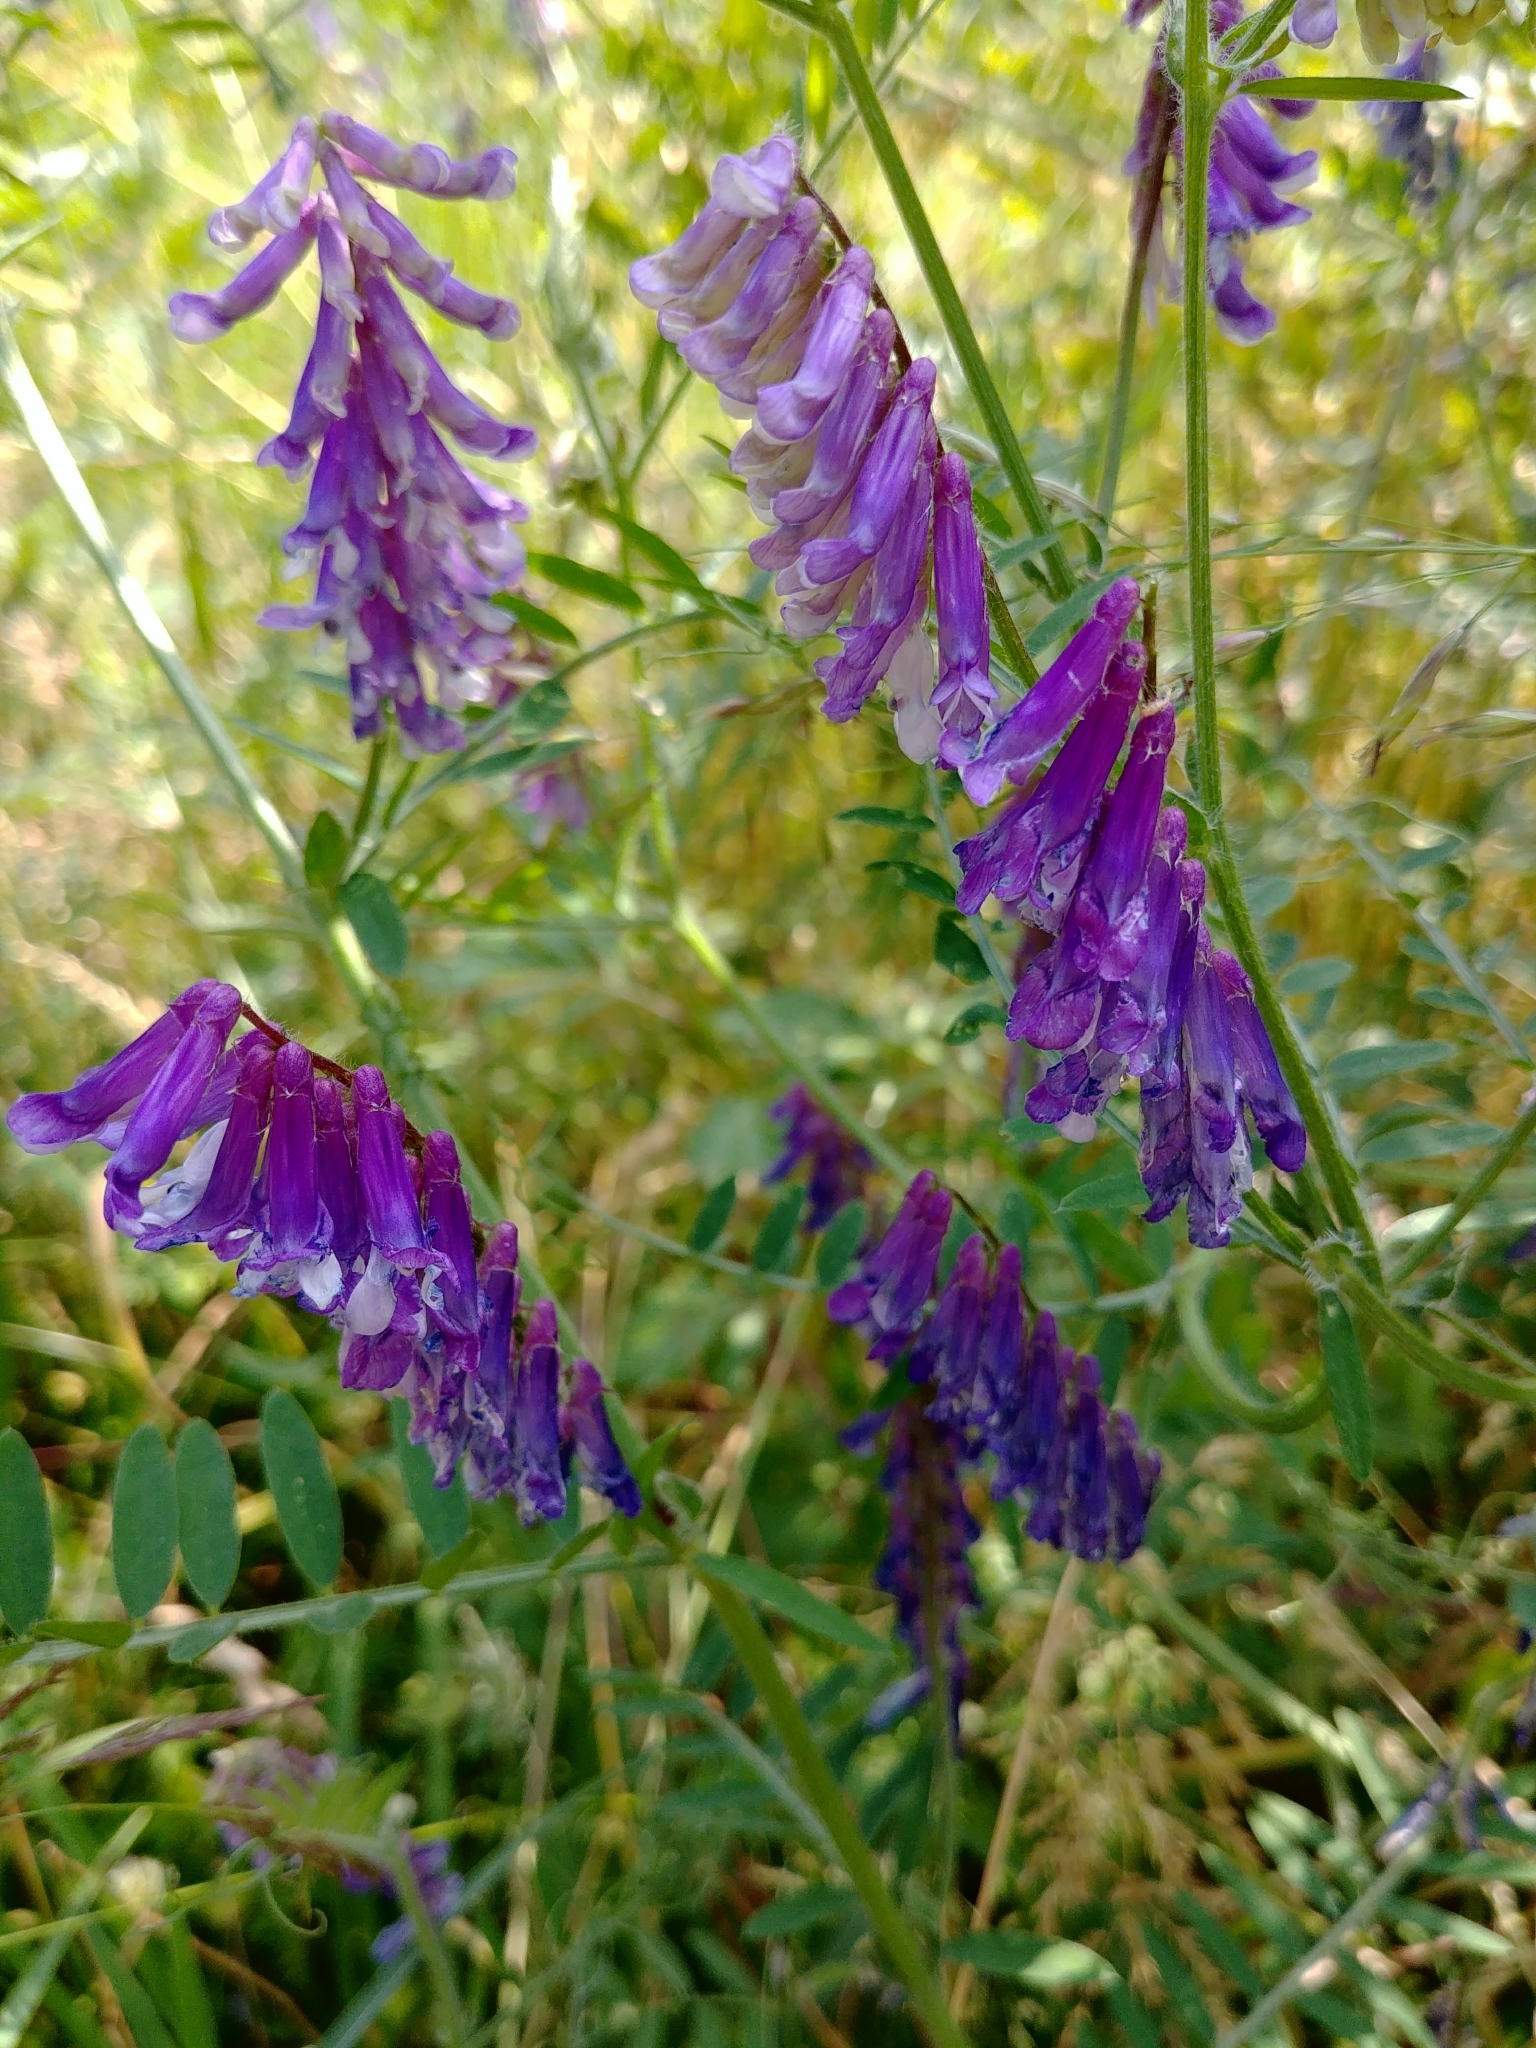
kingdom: Plantae
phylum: Tracheophyta
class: Magnoliopsida
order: Fabales
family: Fabaceae
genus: Vicia
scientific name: Vicia villosa
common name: Fodder vetch
